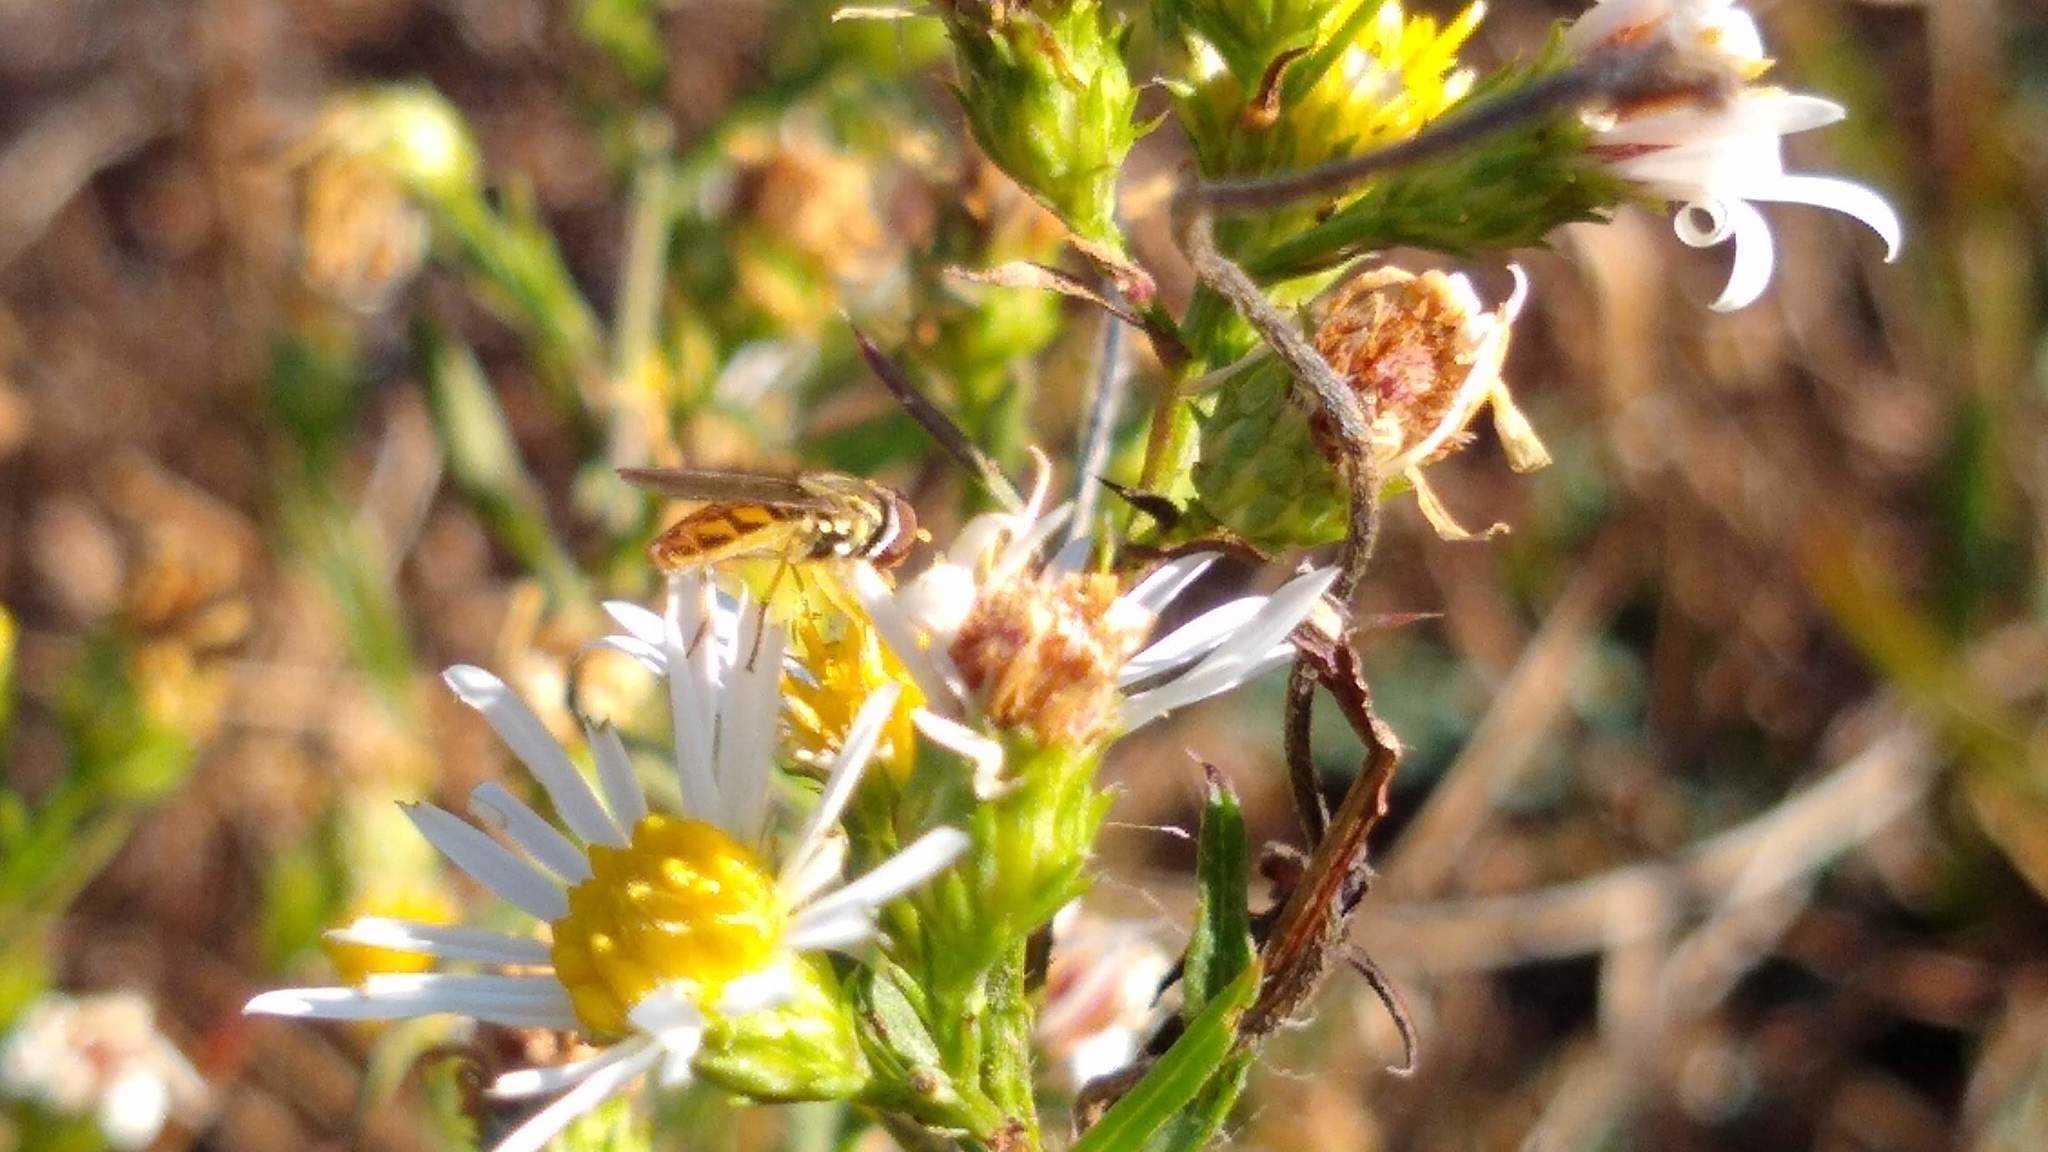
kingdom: Animalia
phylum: Arthropoda
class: Insecta
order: Diptera
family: Syrphidae
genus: Toxomerus
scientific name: Toxomerus marginatus
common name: Syrphid fly
